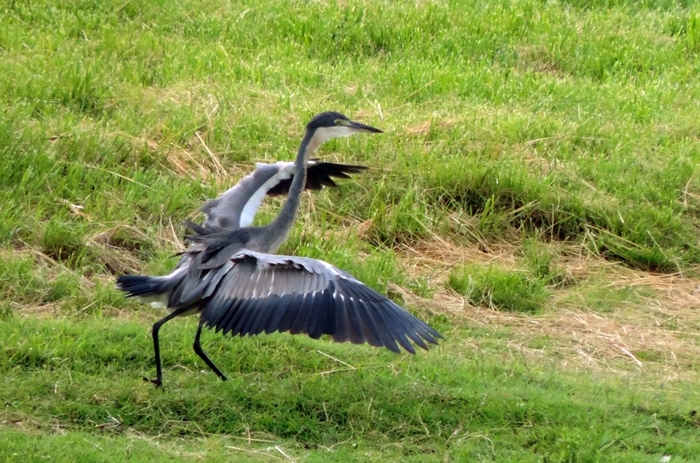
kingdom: Animalia
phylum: Chordata
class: Aves
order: Pelecaniformes
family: Ardeidae
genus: Ardea
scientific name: Ardea melanocephala
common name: Black-headed heron
